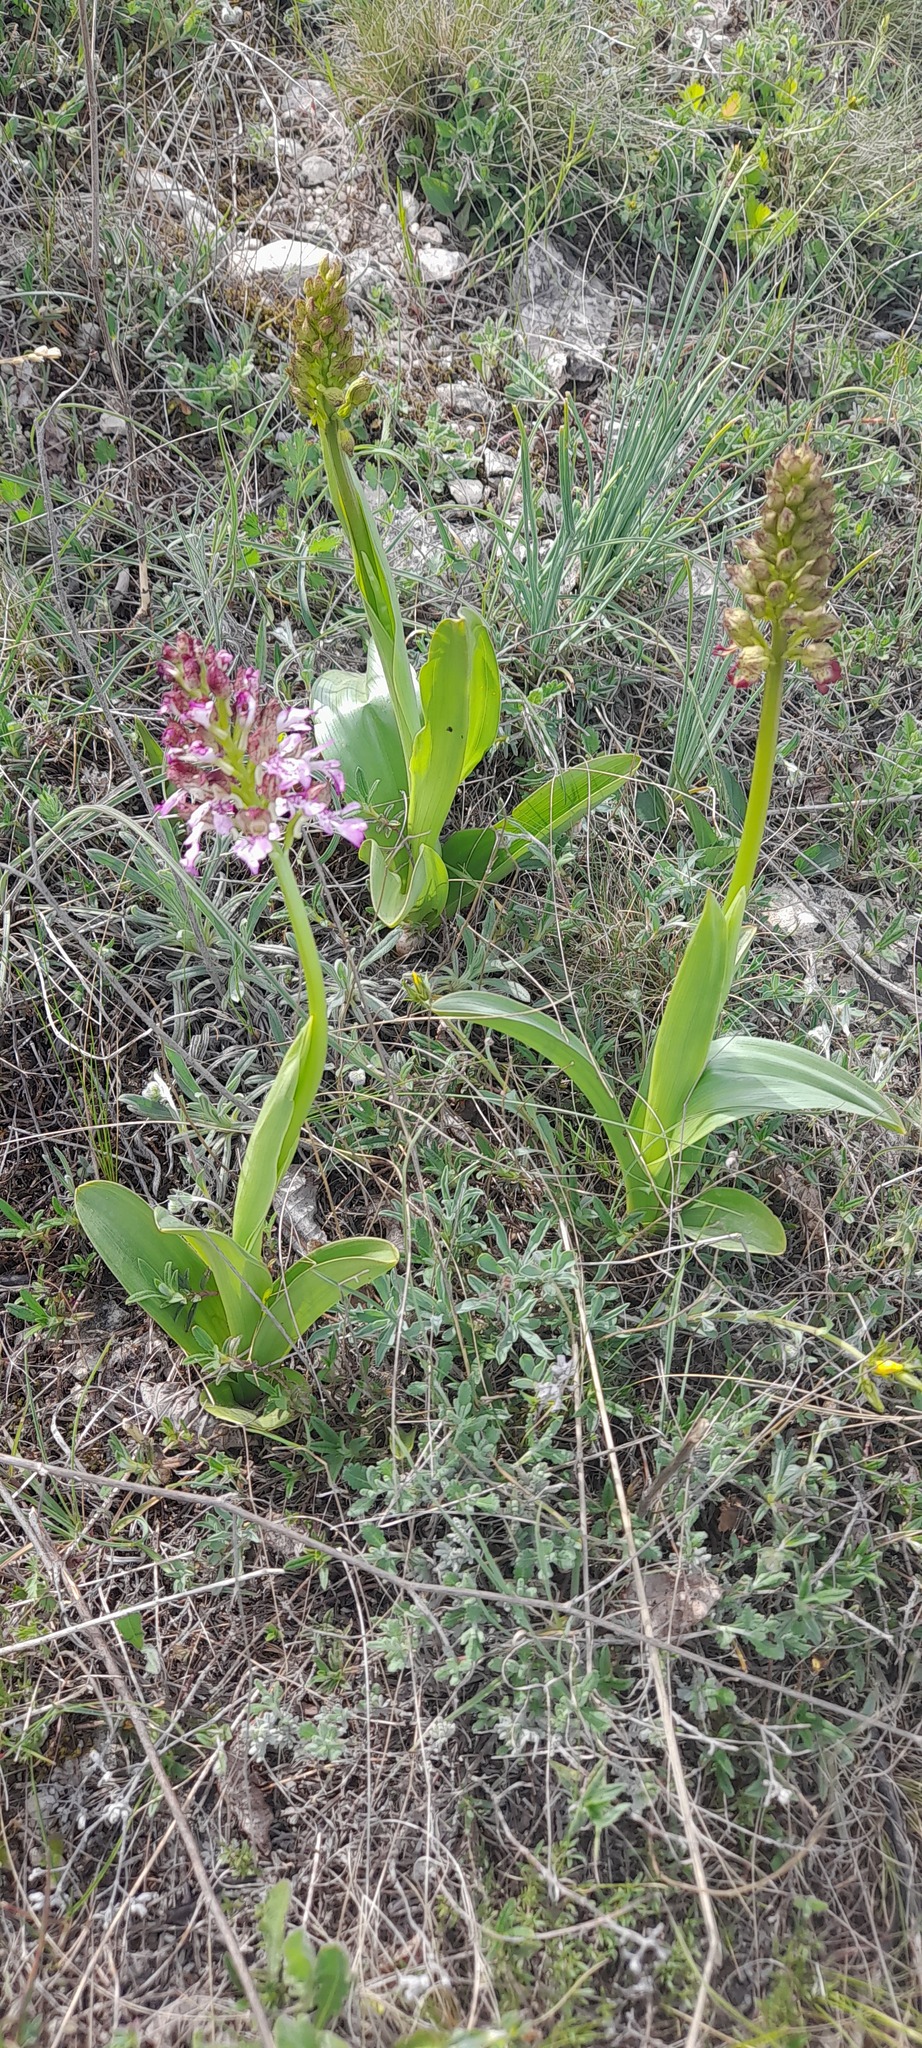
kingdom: Plantae
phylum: Tracheophyta
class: Liliopsida
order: Asparagales
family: Orchidaceae
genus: Orchis
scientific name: Orchis purpurea
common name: Lady orchid
